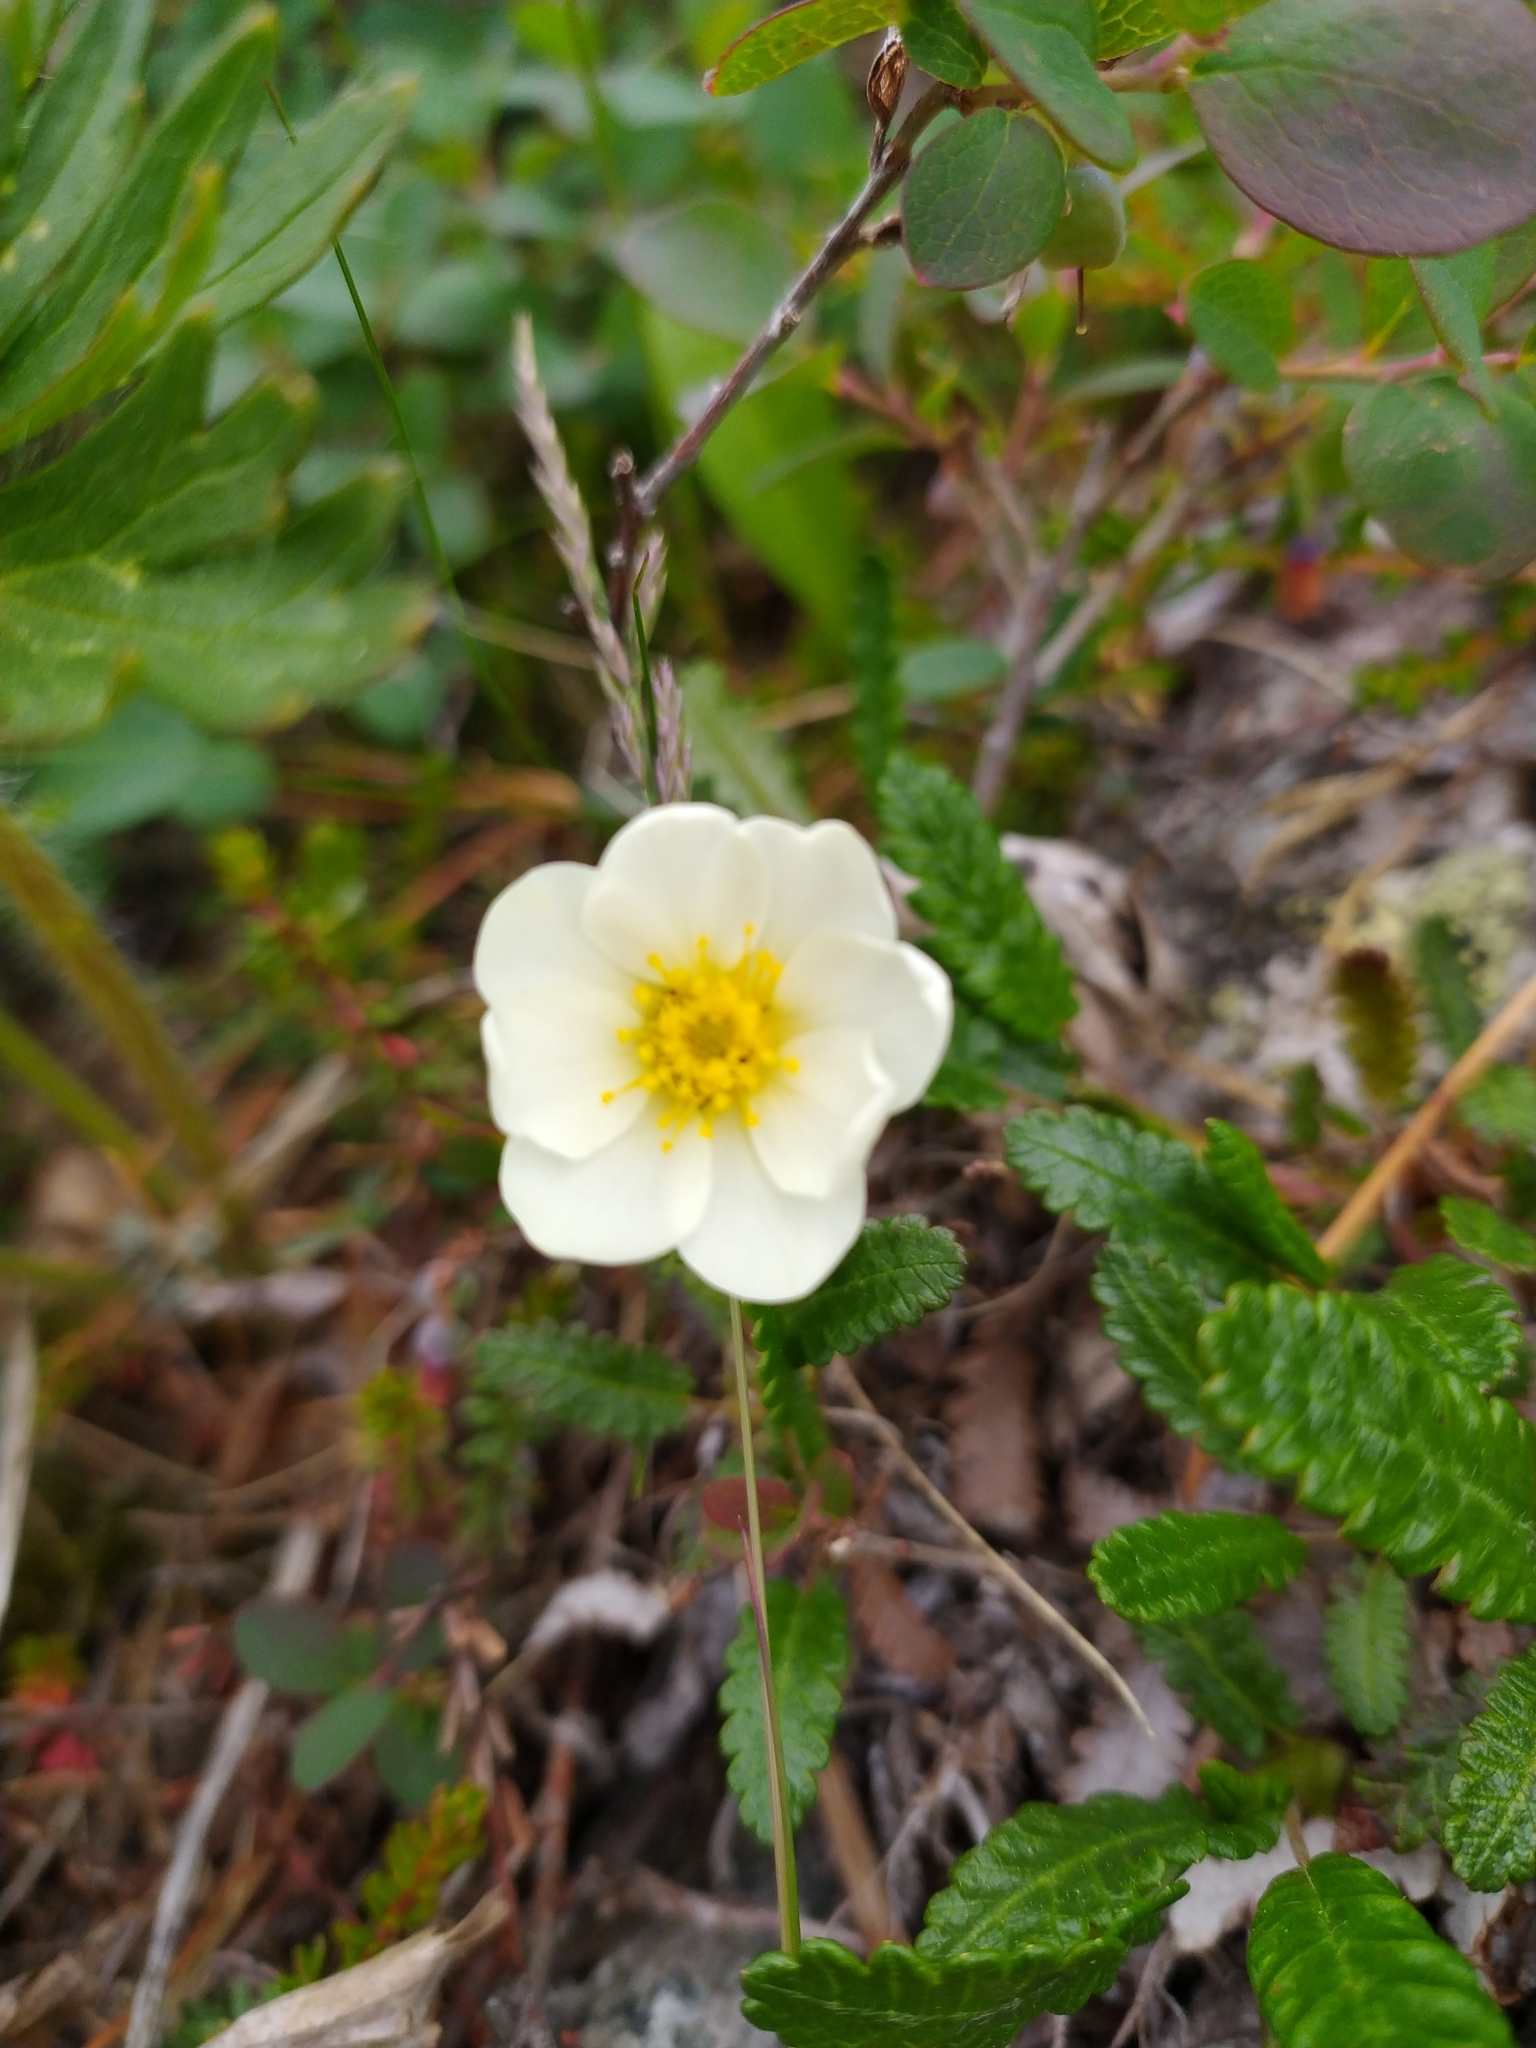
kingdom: Plantae
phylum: Tracheophyta
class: Magnoliopsida
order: Rosales
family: Rosaceae
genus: Dryas
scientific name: Dryas octopetala
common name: Eight-petal mountain-avens
